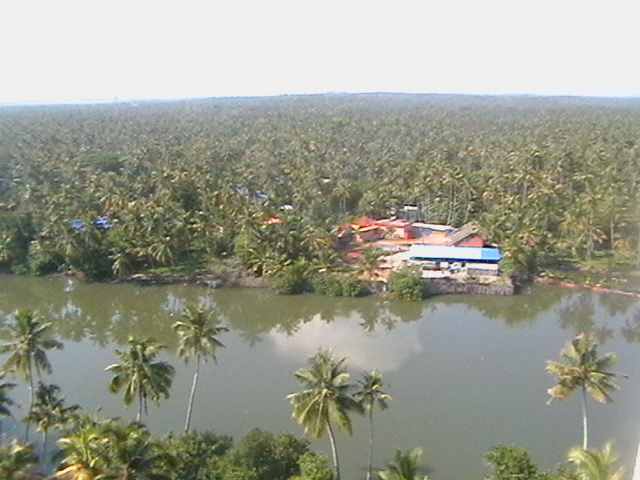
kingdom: Plantae
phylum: Tracheophyta
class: Liliopsida
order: Arecales
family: Arecaceae
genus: Cocos
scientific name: Cocos nucifera
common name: Coconut palm
